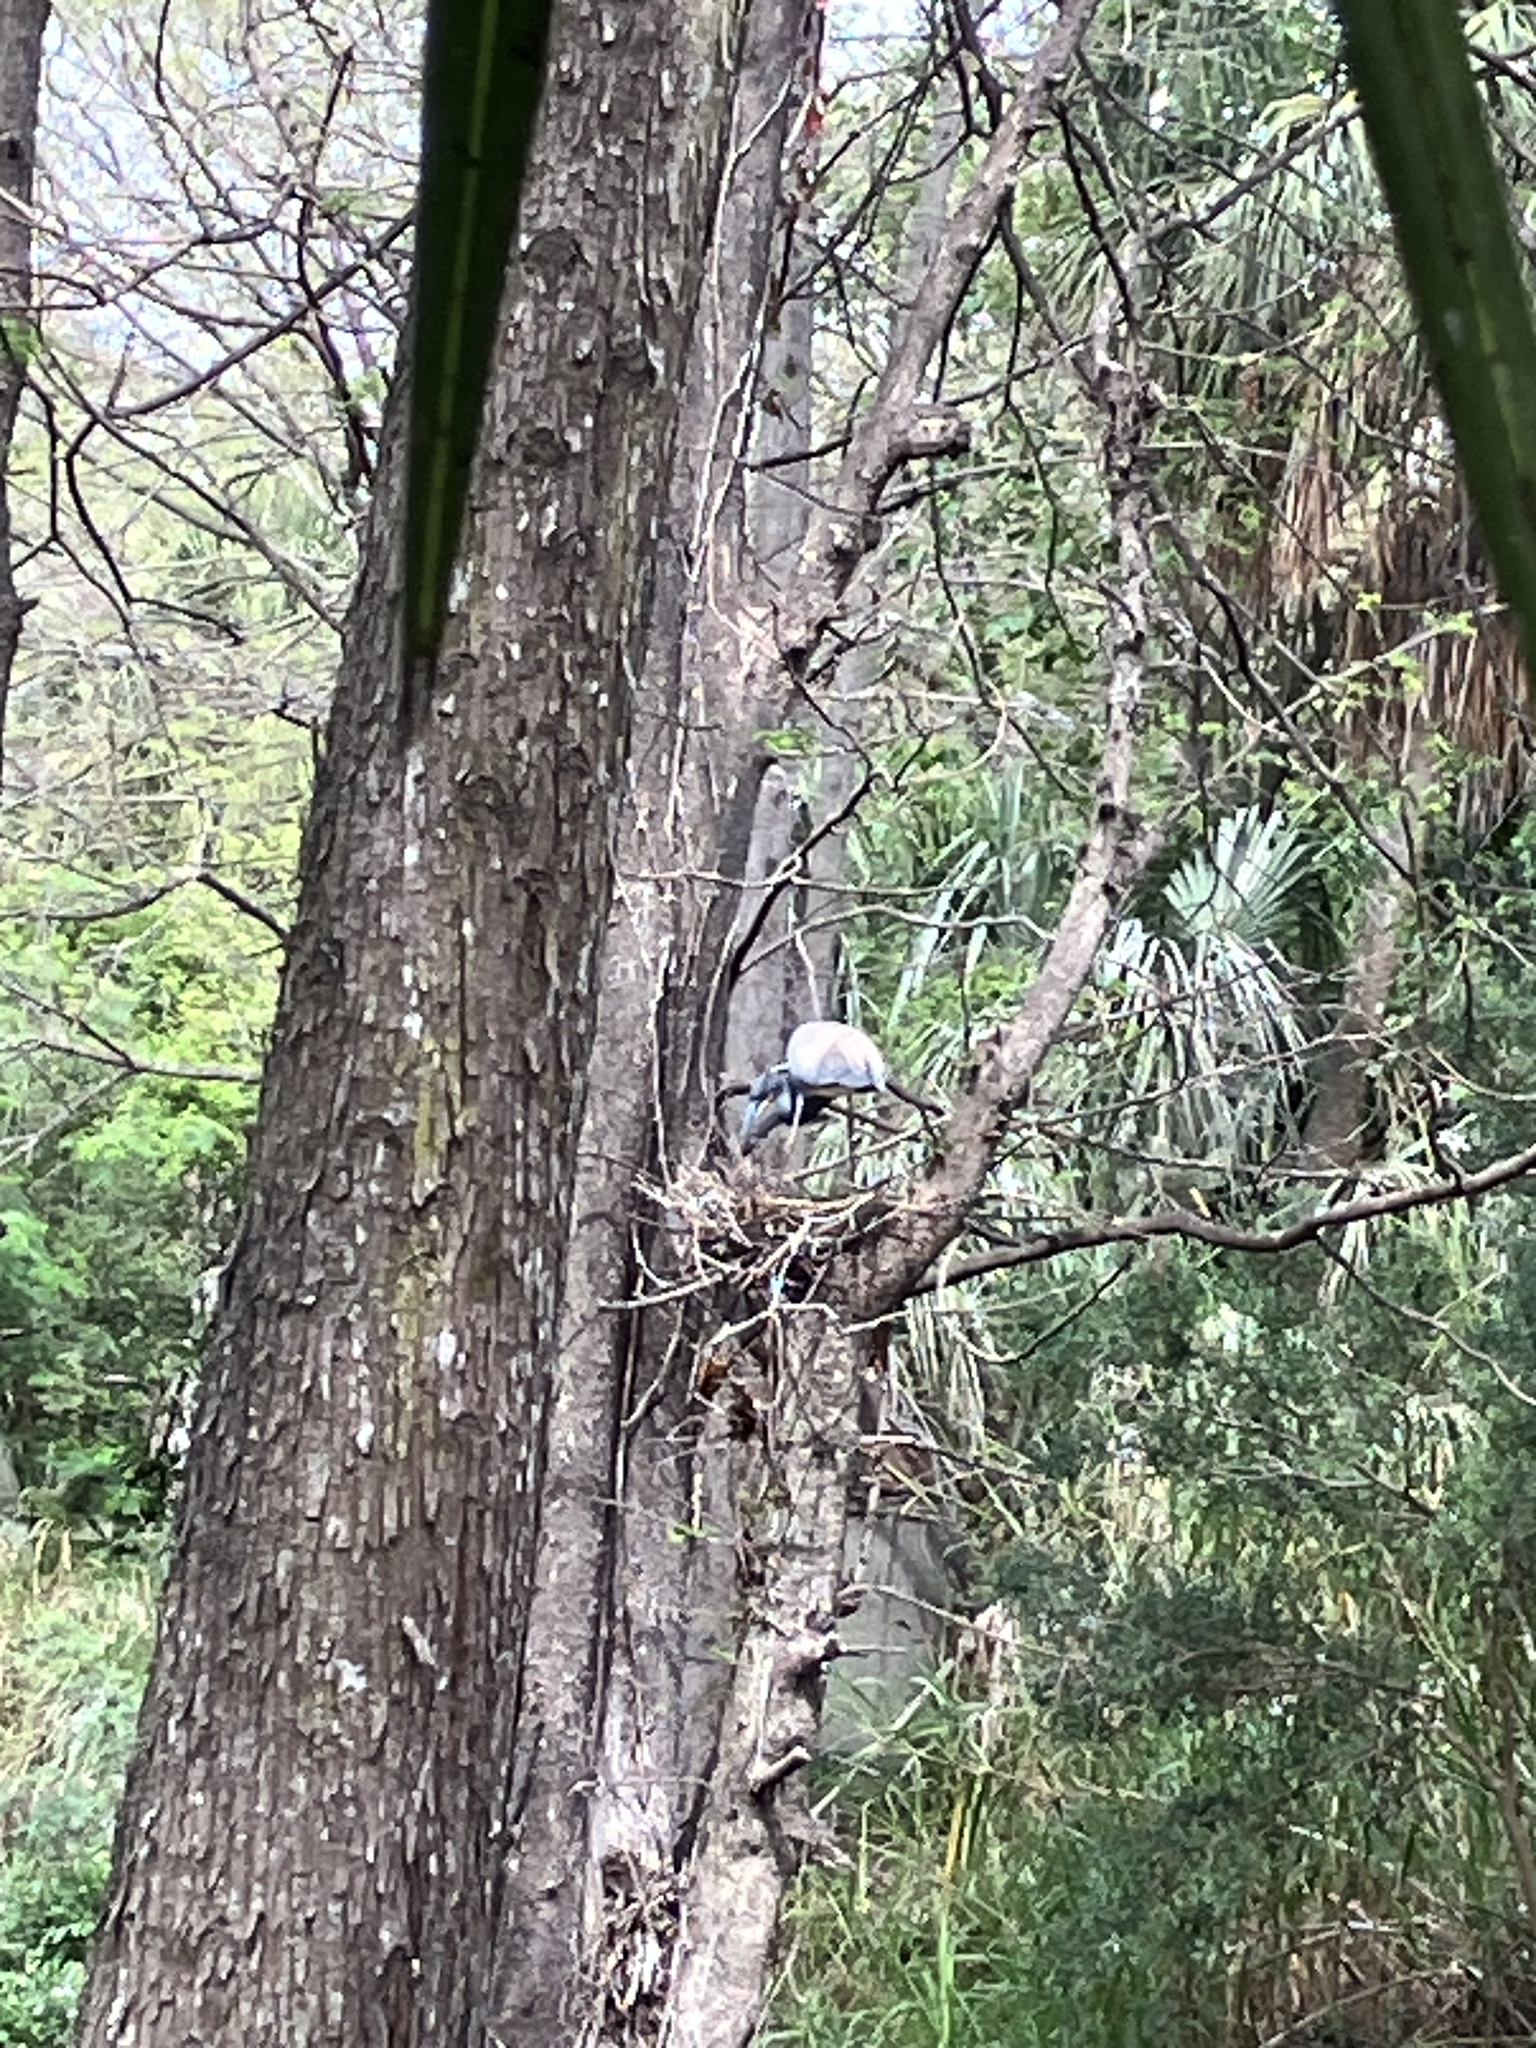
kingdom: Animalia
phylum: Chordata
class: Aves
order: Pelecaniformes
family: Ardeidae
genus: Egretta
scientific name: Egretta tricolor
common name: Tricolored heron
